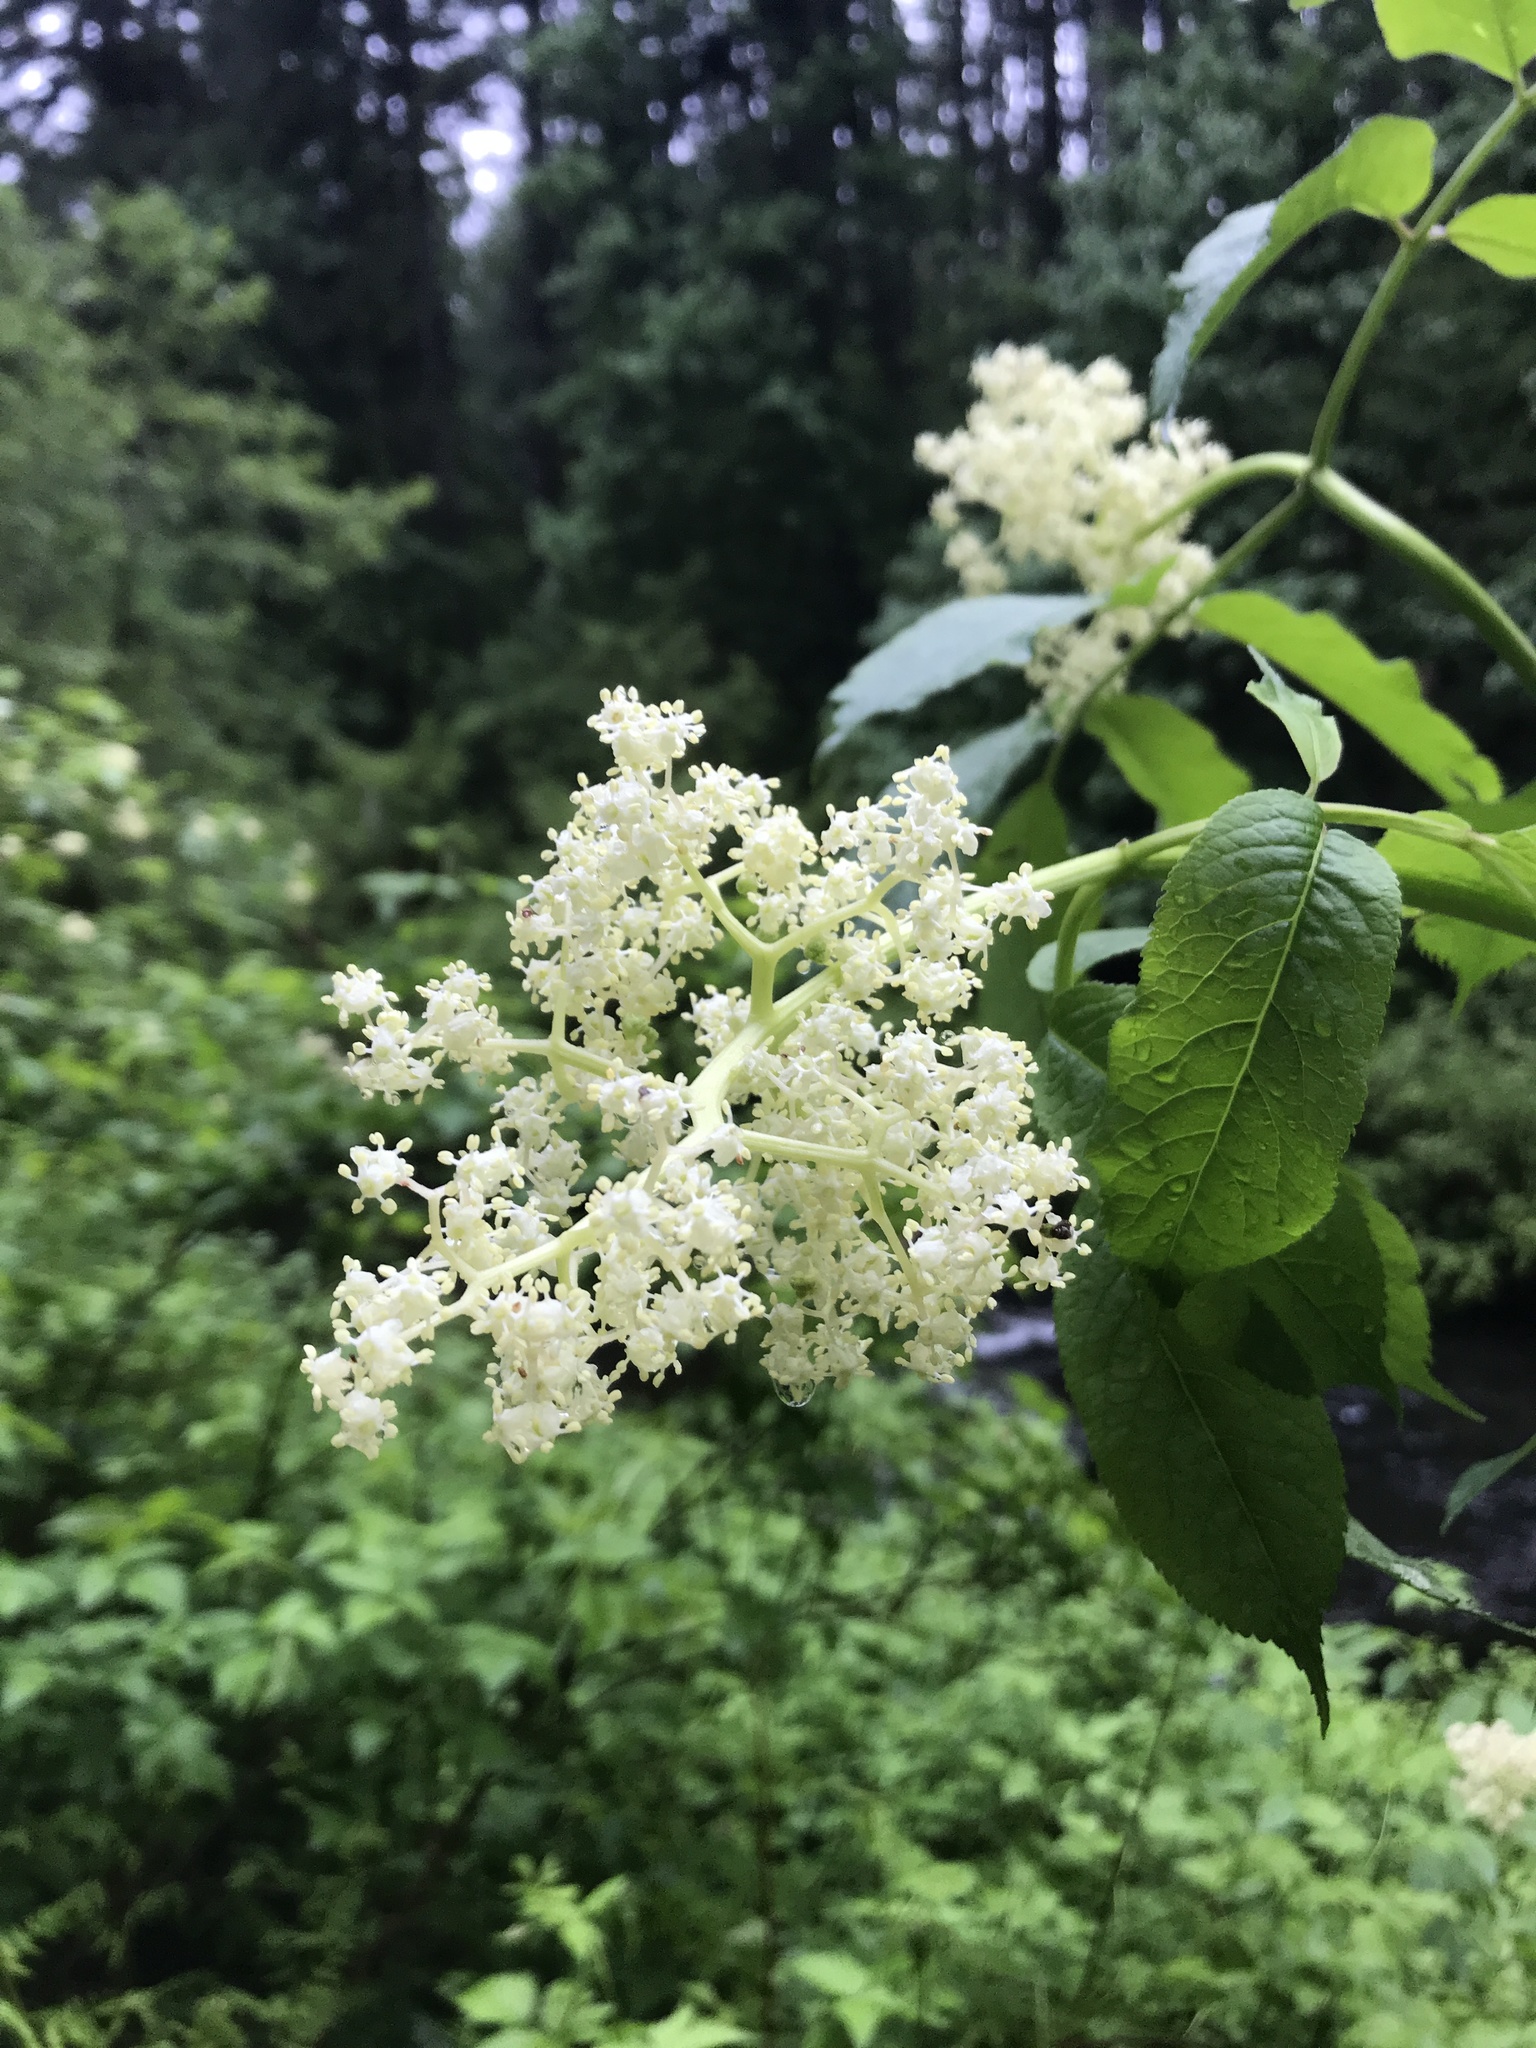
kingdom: Plantae
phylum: Tracheophyta
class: Magnoliopsida
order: Dipsacales
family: Viburnaceae
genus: Sambucus
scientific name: Sambucus racemosa
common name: Red-berried elder
